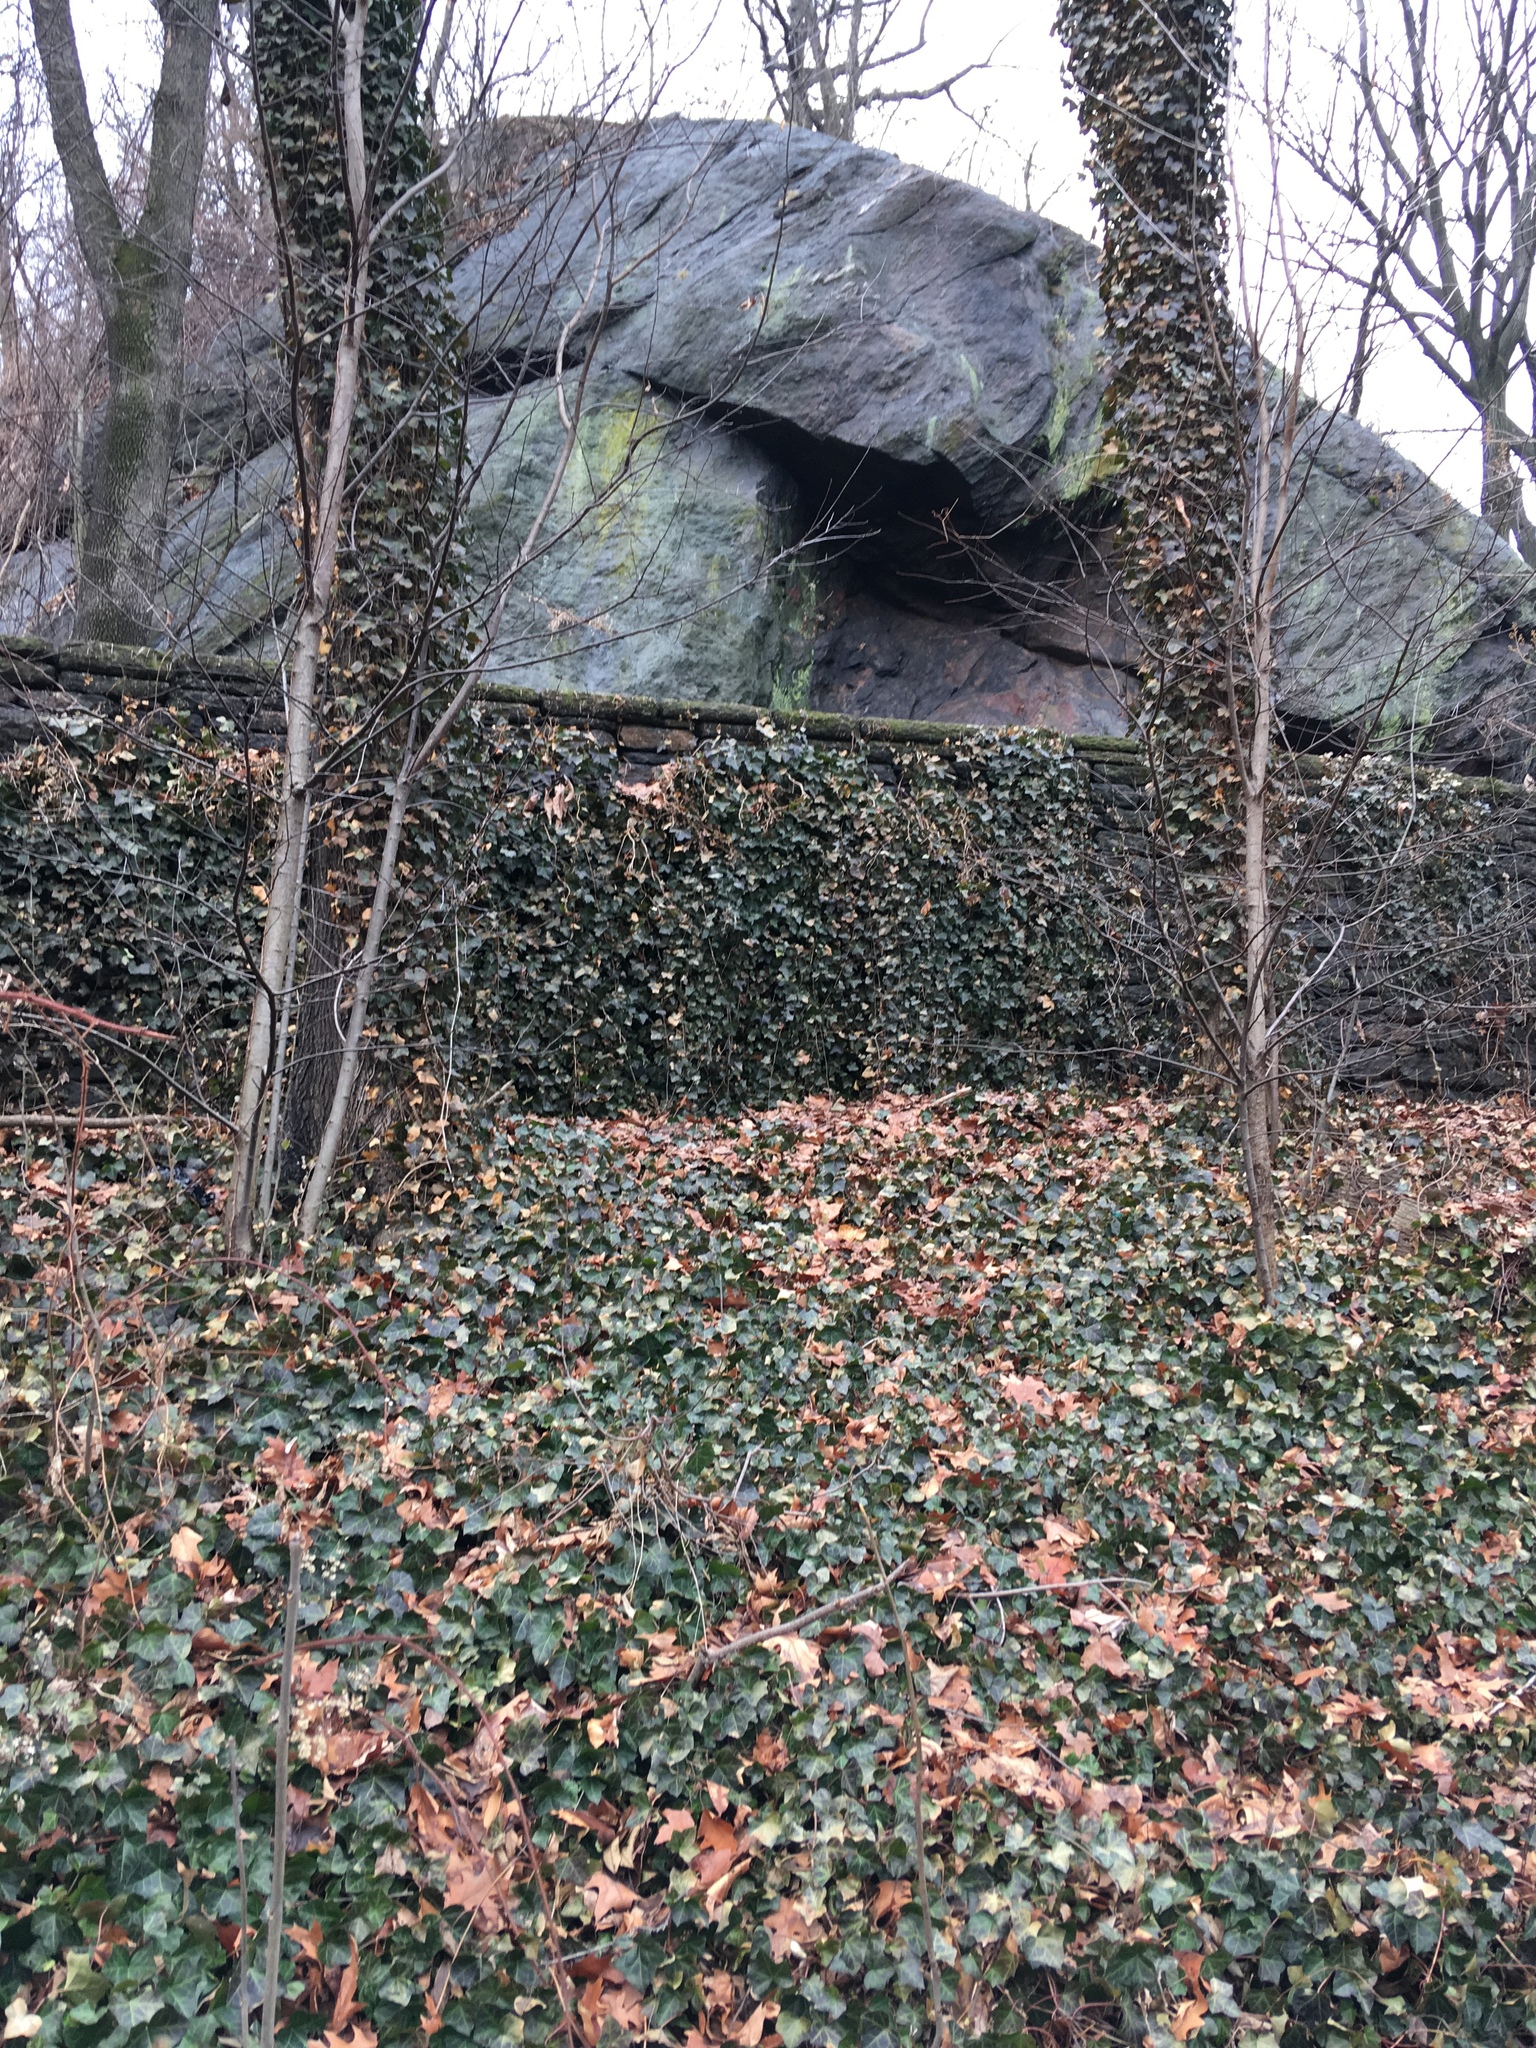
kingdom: Plantae
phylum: Tracheophyta
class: Magnoliopsida
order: Apiales
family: Araliaceae
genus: Hedera
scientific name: Hedera helix
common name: Ivy
